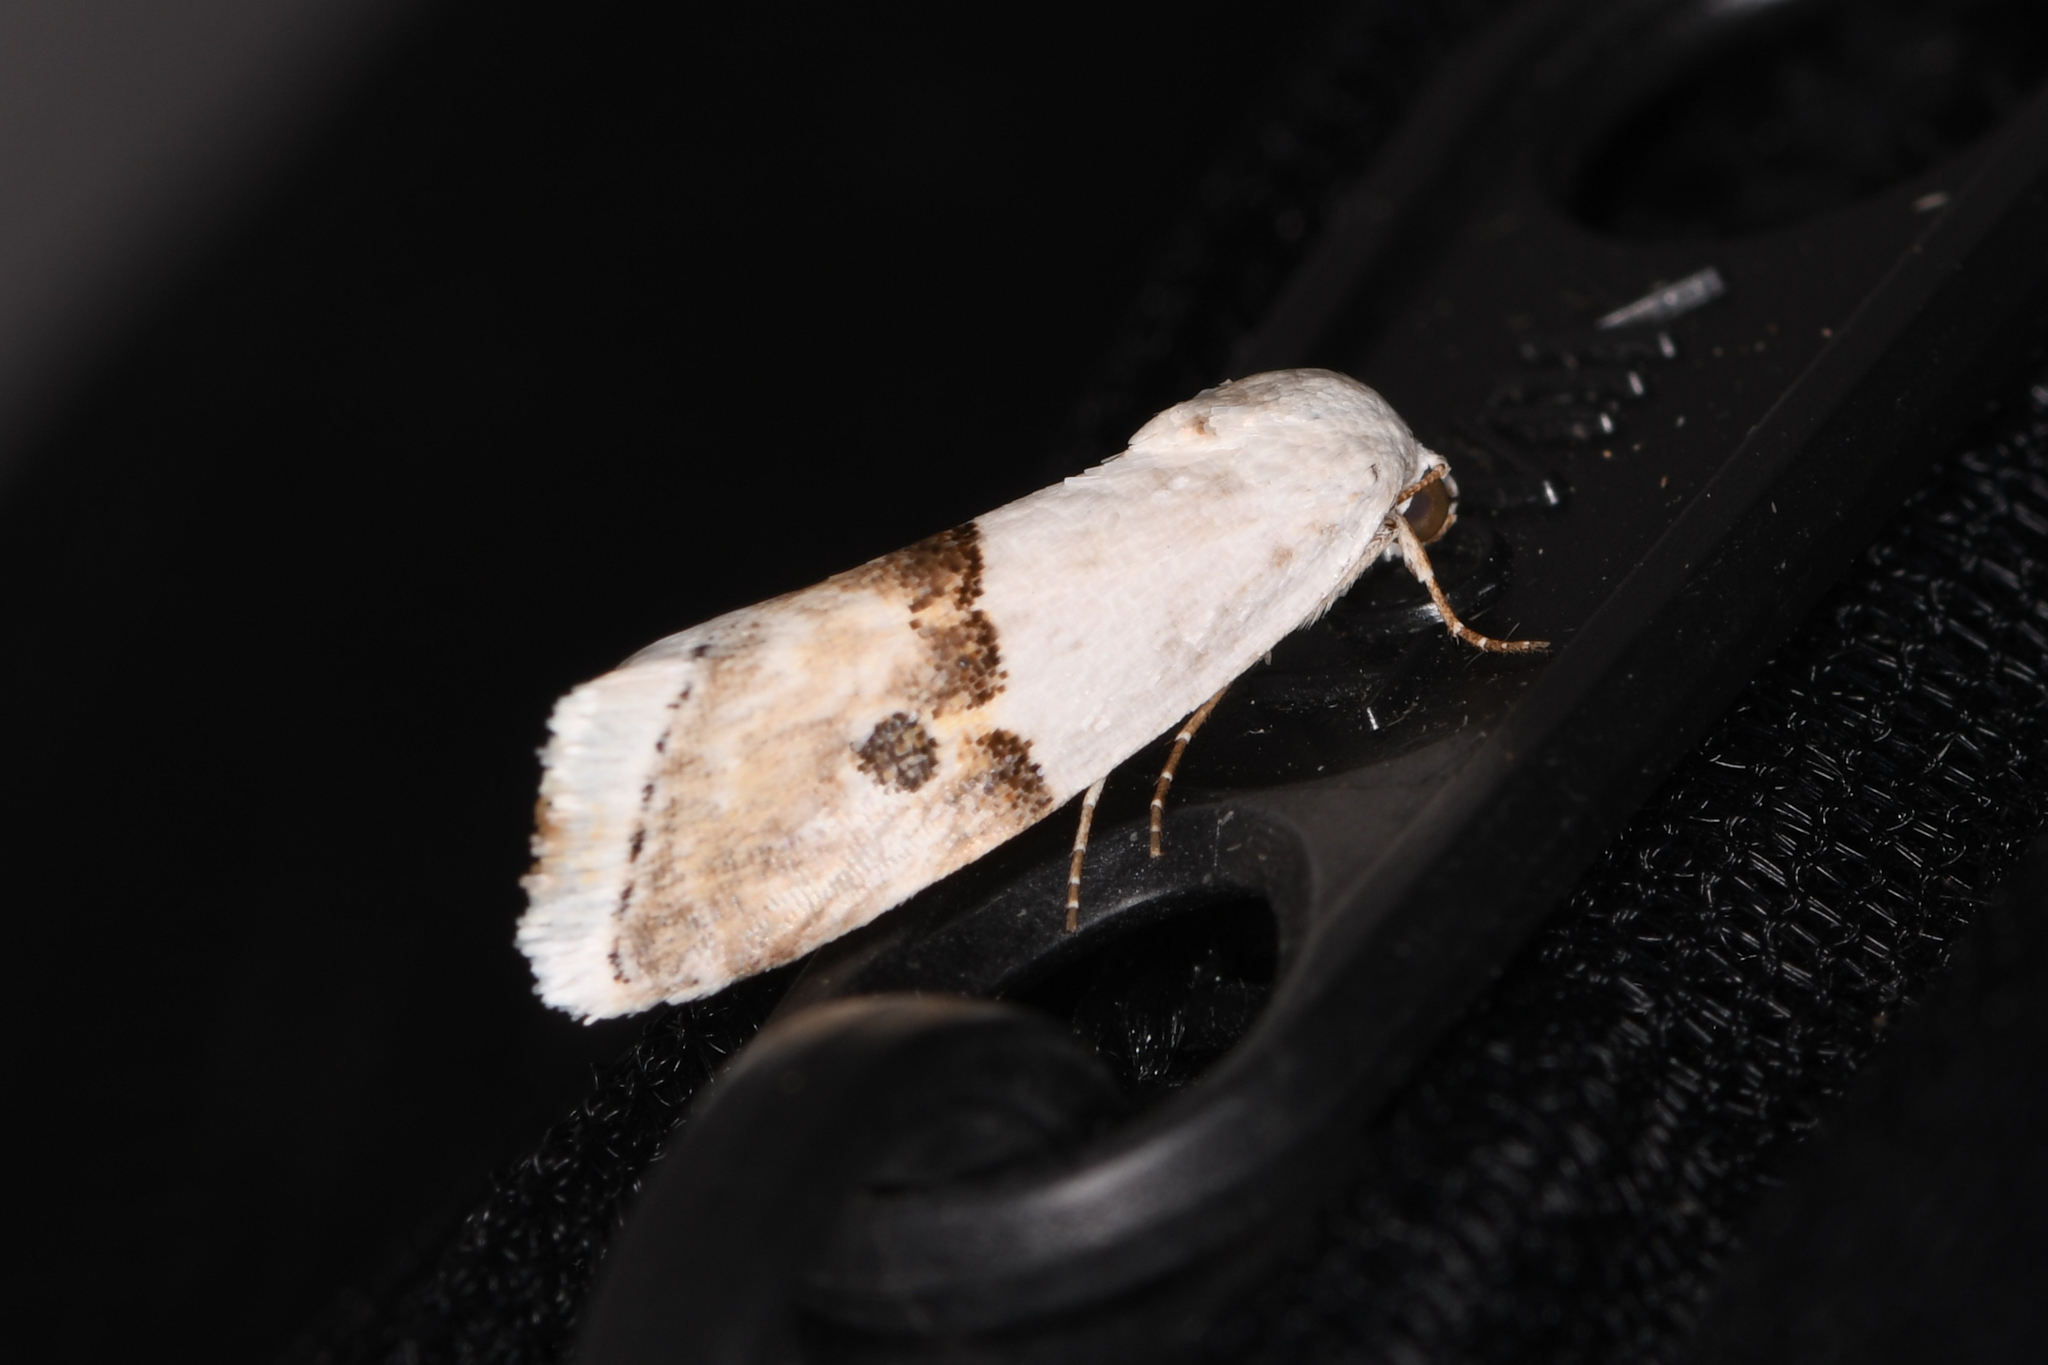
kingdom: Animalia
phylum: Arthropoda
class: Insecta
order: Lepidoptera
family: Noctuidae
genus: Ponometia
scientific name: Ponometia elegantula
